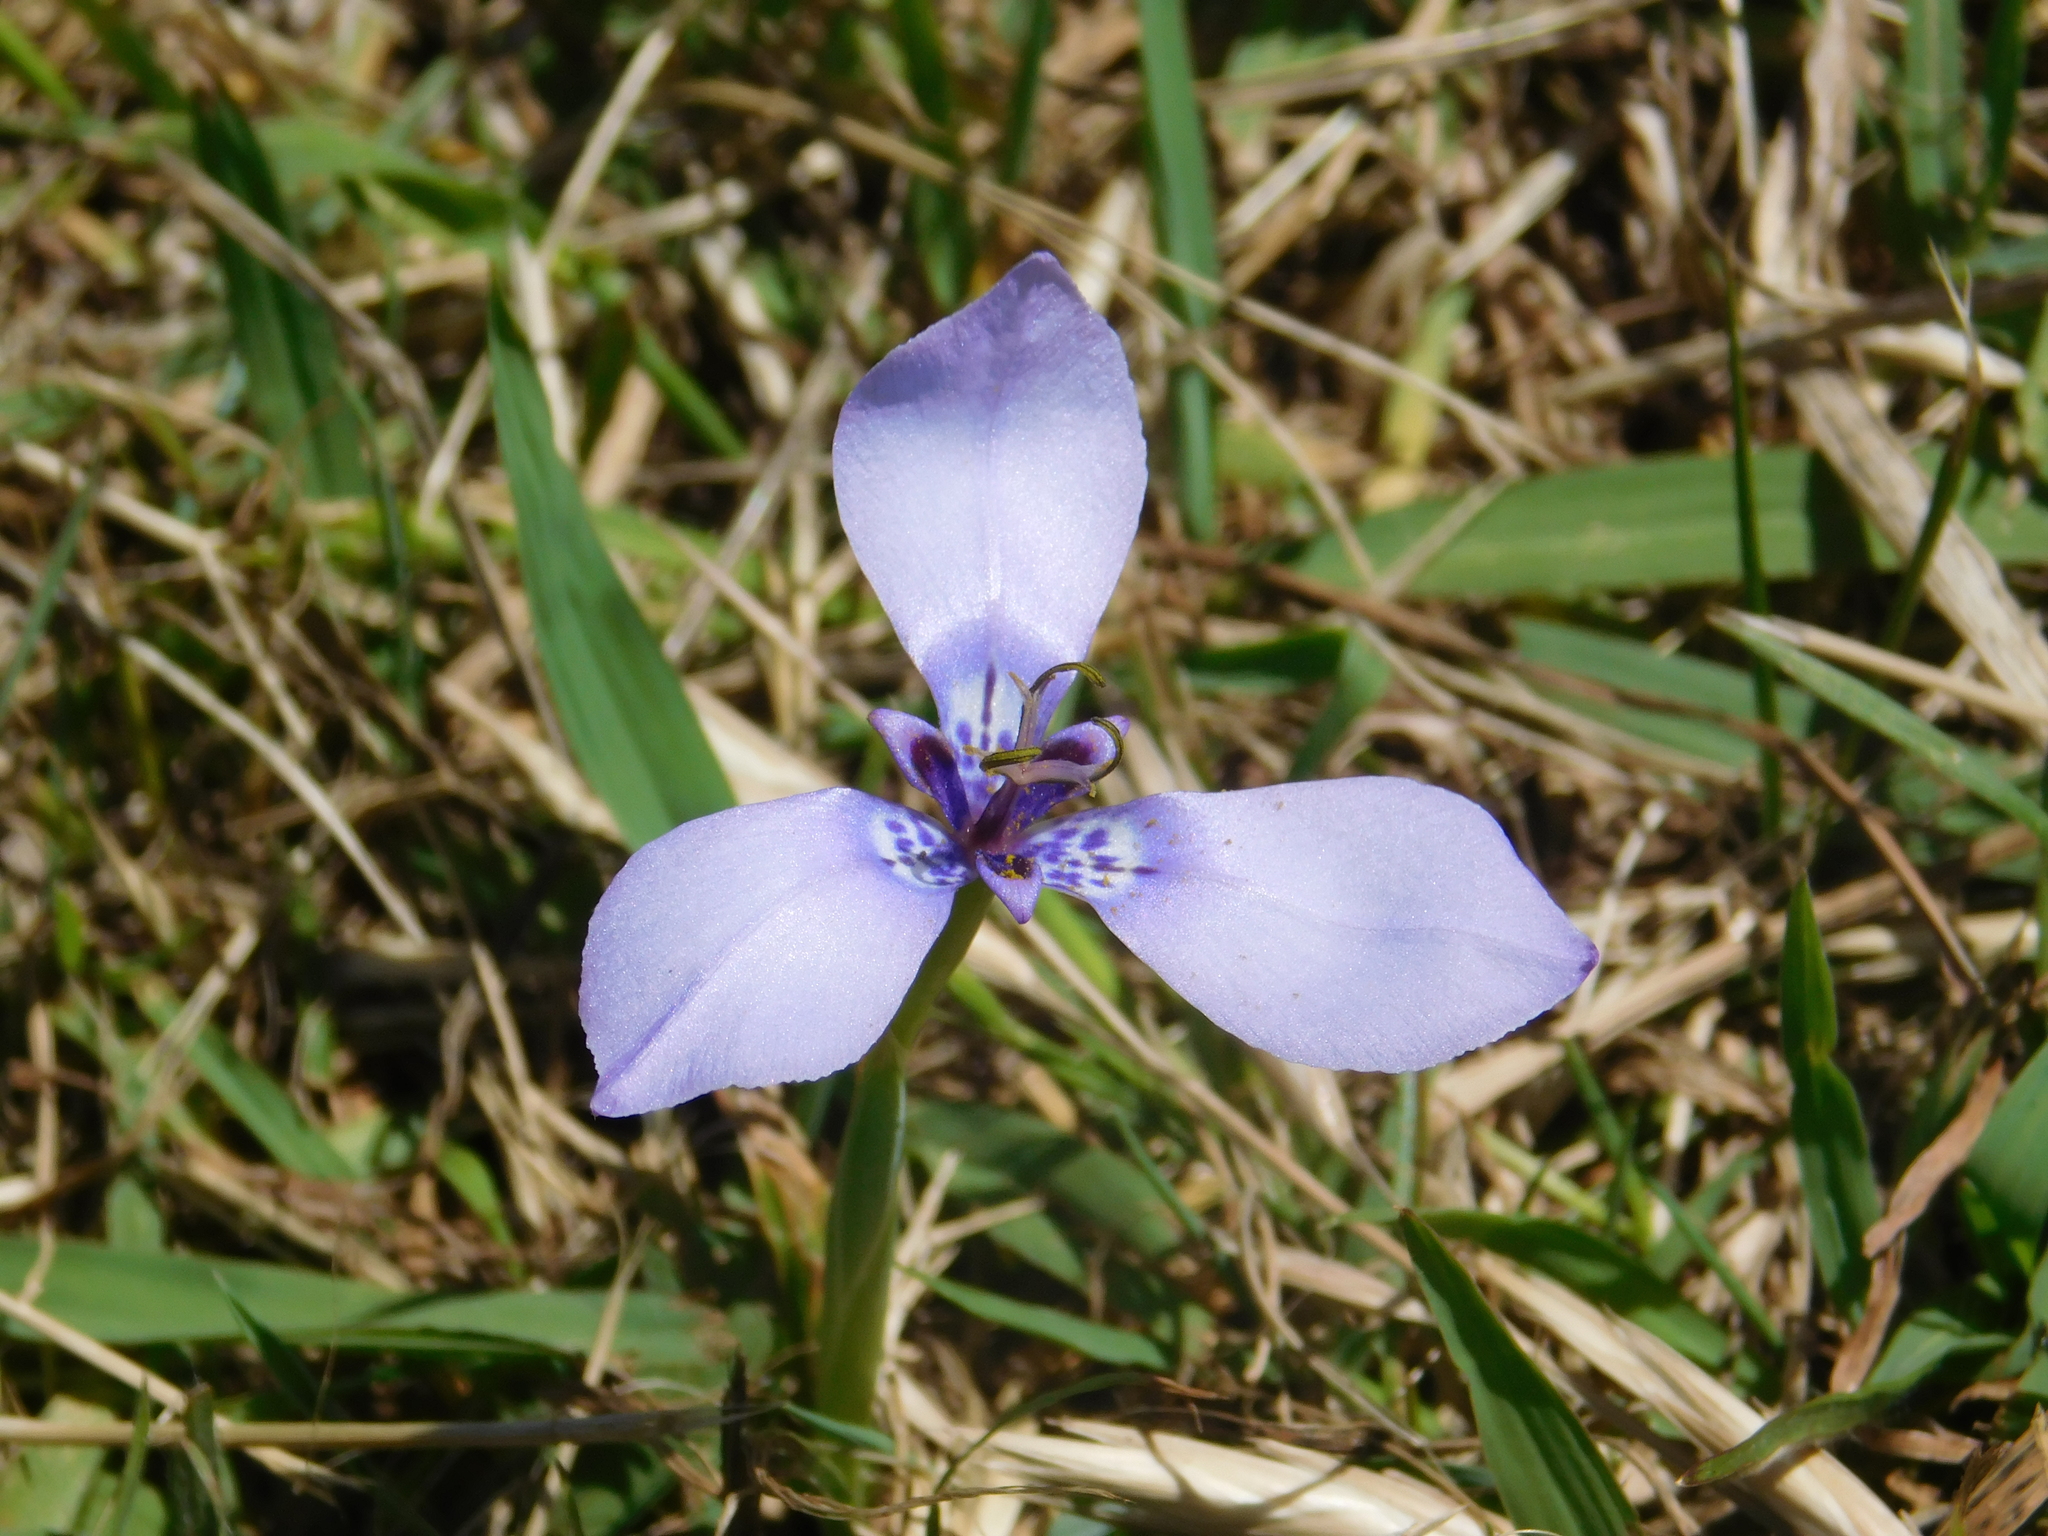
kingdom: Plantae
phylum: Tracheophyta
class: Liliopsida
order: Asparagales
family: Iridaceae
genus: Herbertia
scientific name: Herbertia lahue
